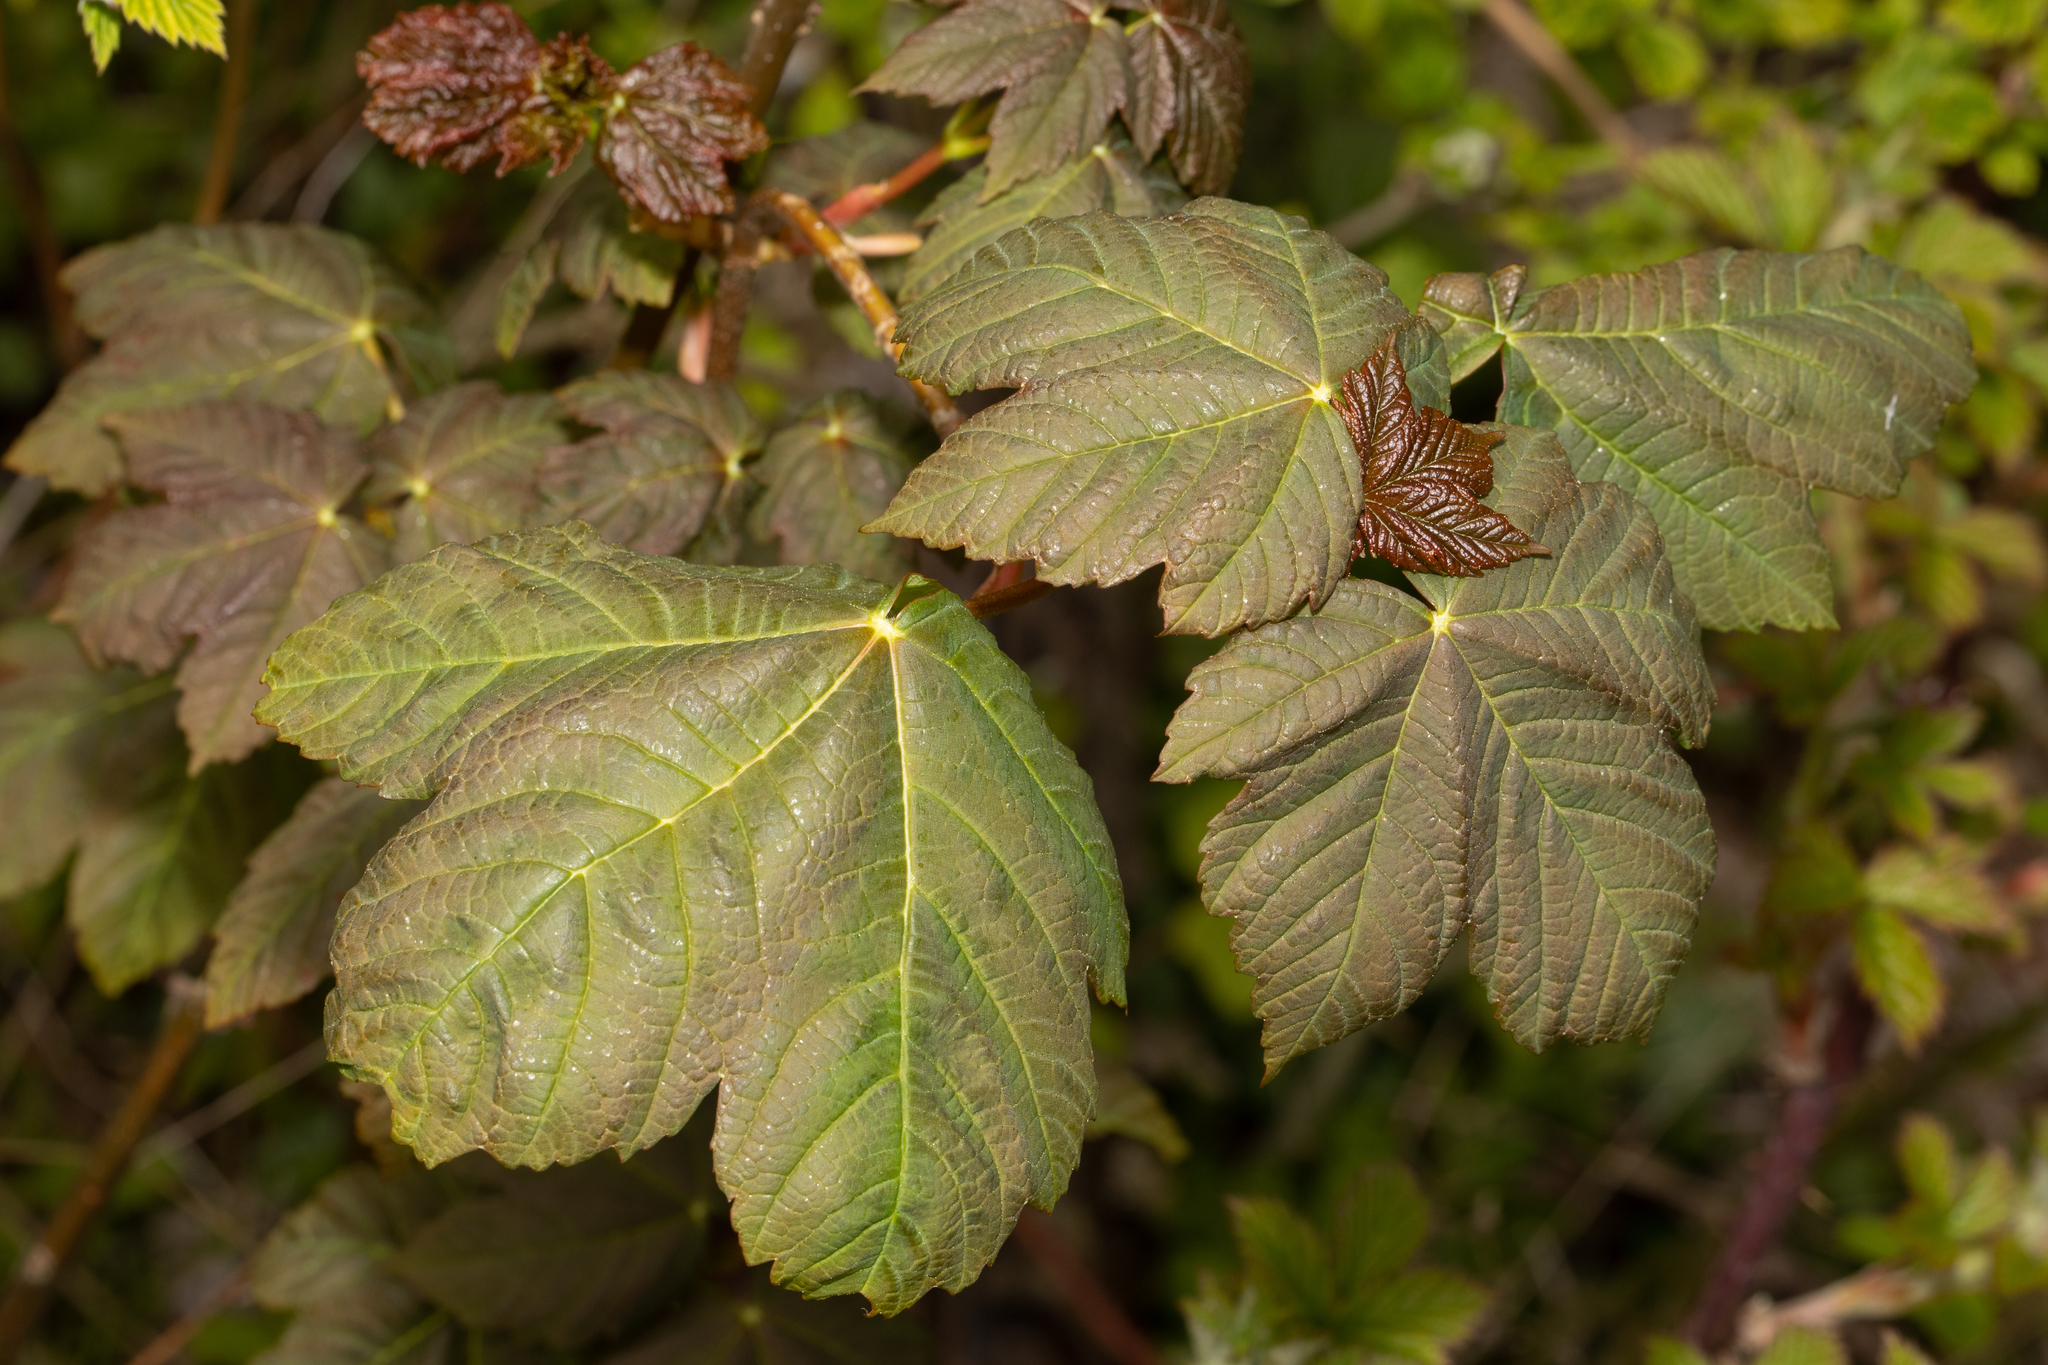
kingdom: Plantae
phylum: Tracheophyta
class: Magnoliopsida
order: Sapindales
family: Sapindaceae
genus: Acer
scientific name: Acer pseudoplatanus
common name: Sycamore
